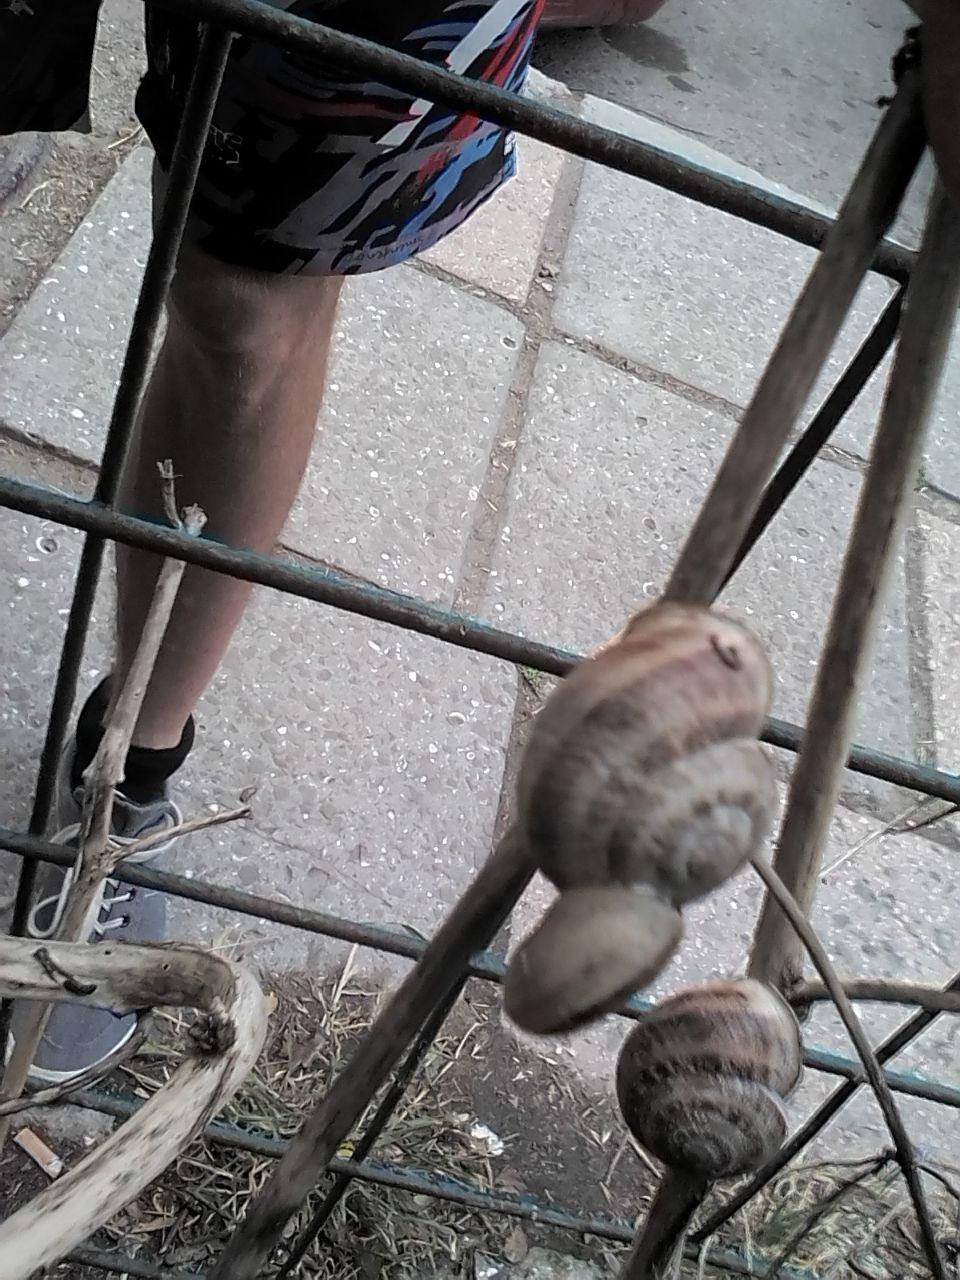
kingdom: Animalia
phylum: Mollusca
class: Gastropoda
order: Stylommatophora
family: Helicidae
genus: Eobania
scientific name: Eobania vermiculata
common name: Chocolateband snail
